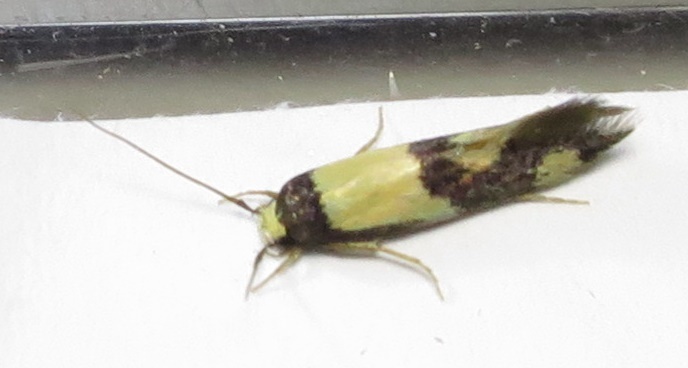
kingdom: Animalia
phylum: Arthropoda
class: Insecta
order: Lepidoptera
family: Tineidae
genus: Opogona
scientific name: Opogona comptella
